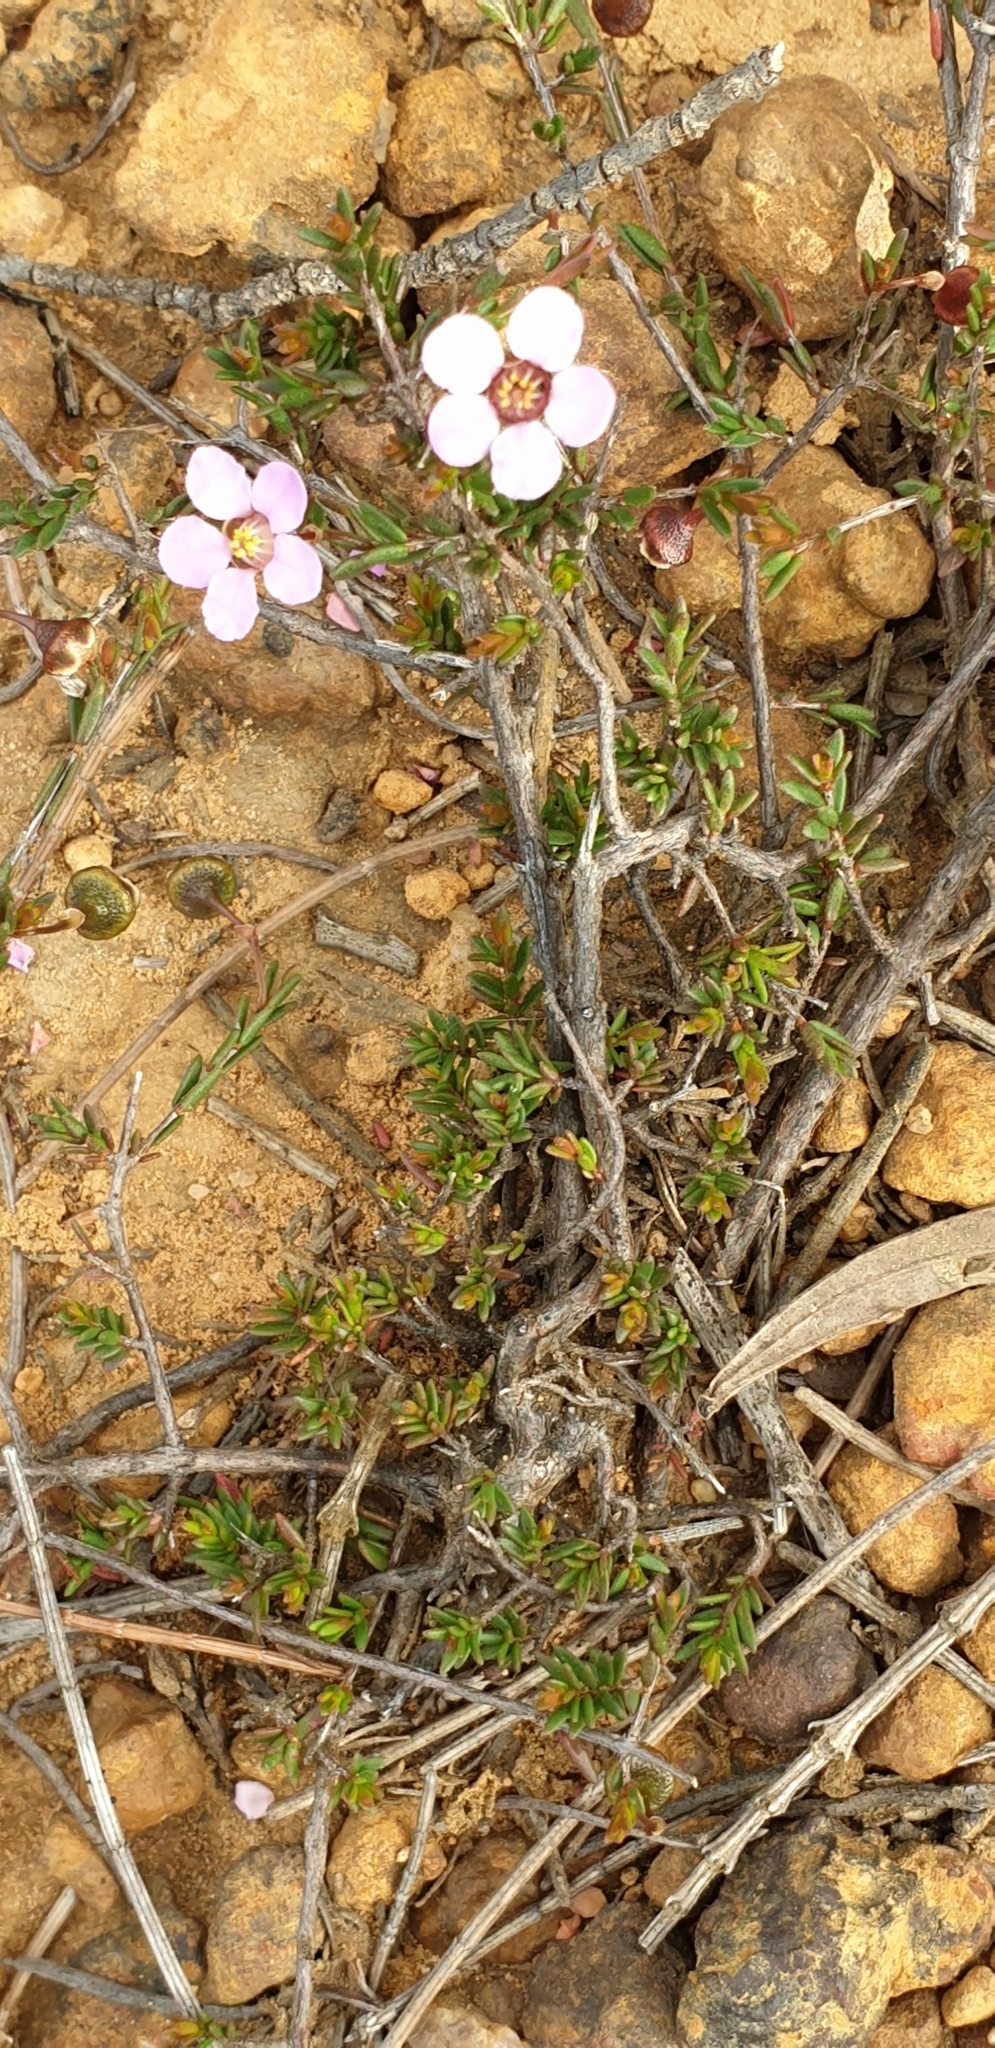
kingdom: Plantae
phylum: Tracheophyta
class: Magnoliopsida
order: Myrtales
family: Myrtaceae
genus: Euryomyrtus
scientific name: Euryomyrtus ramosissima
